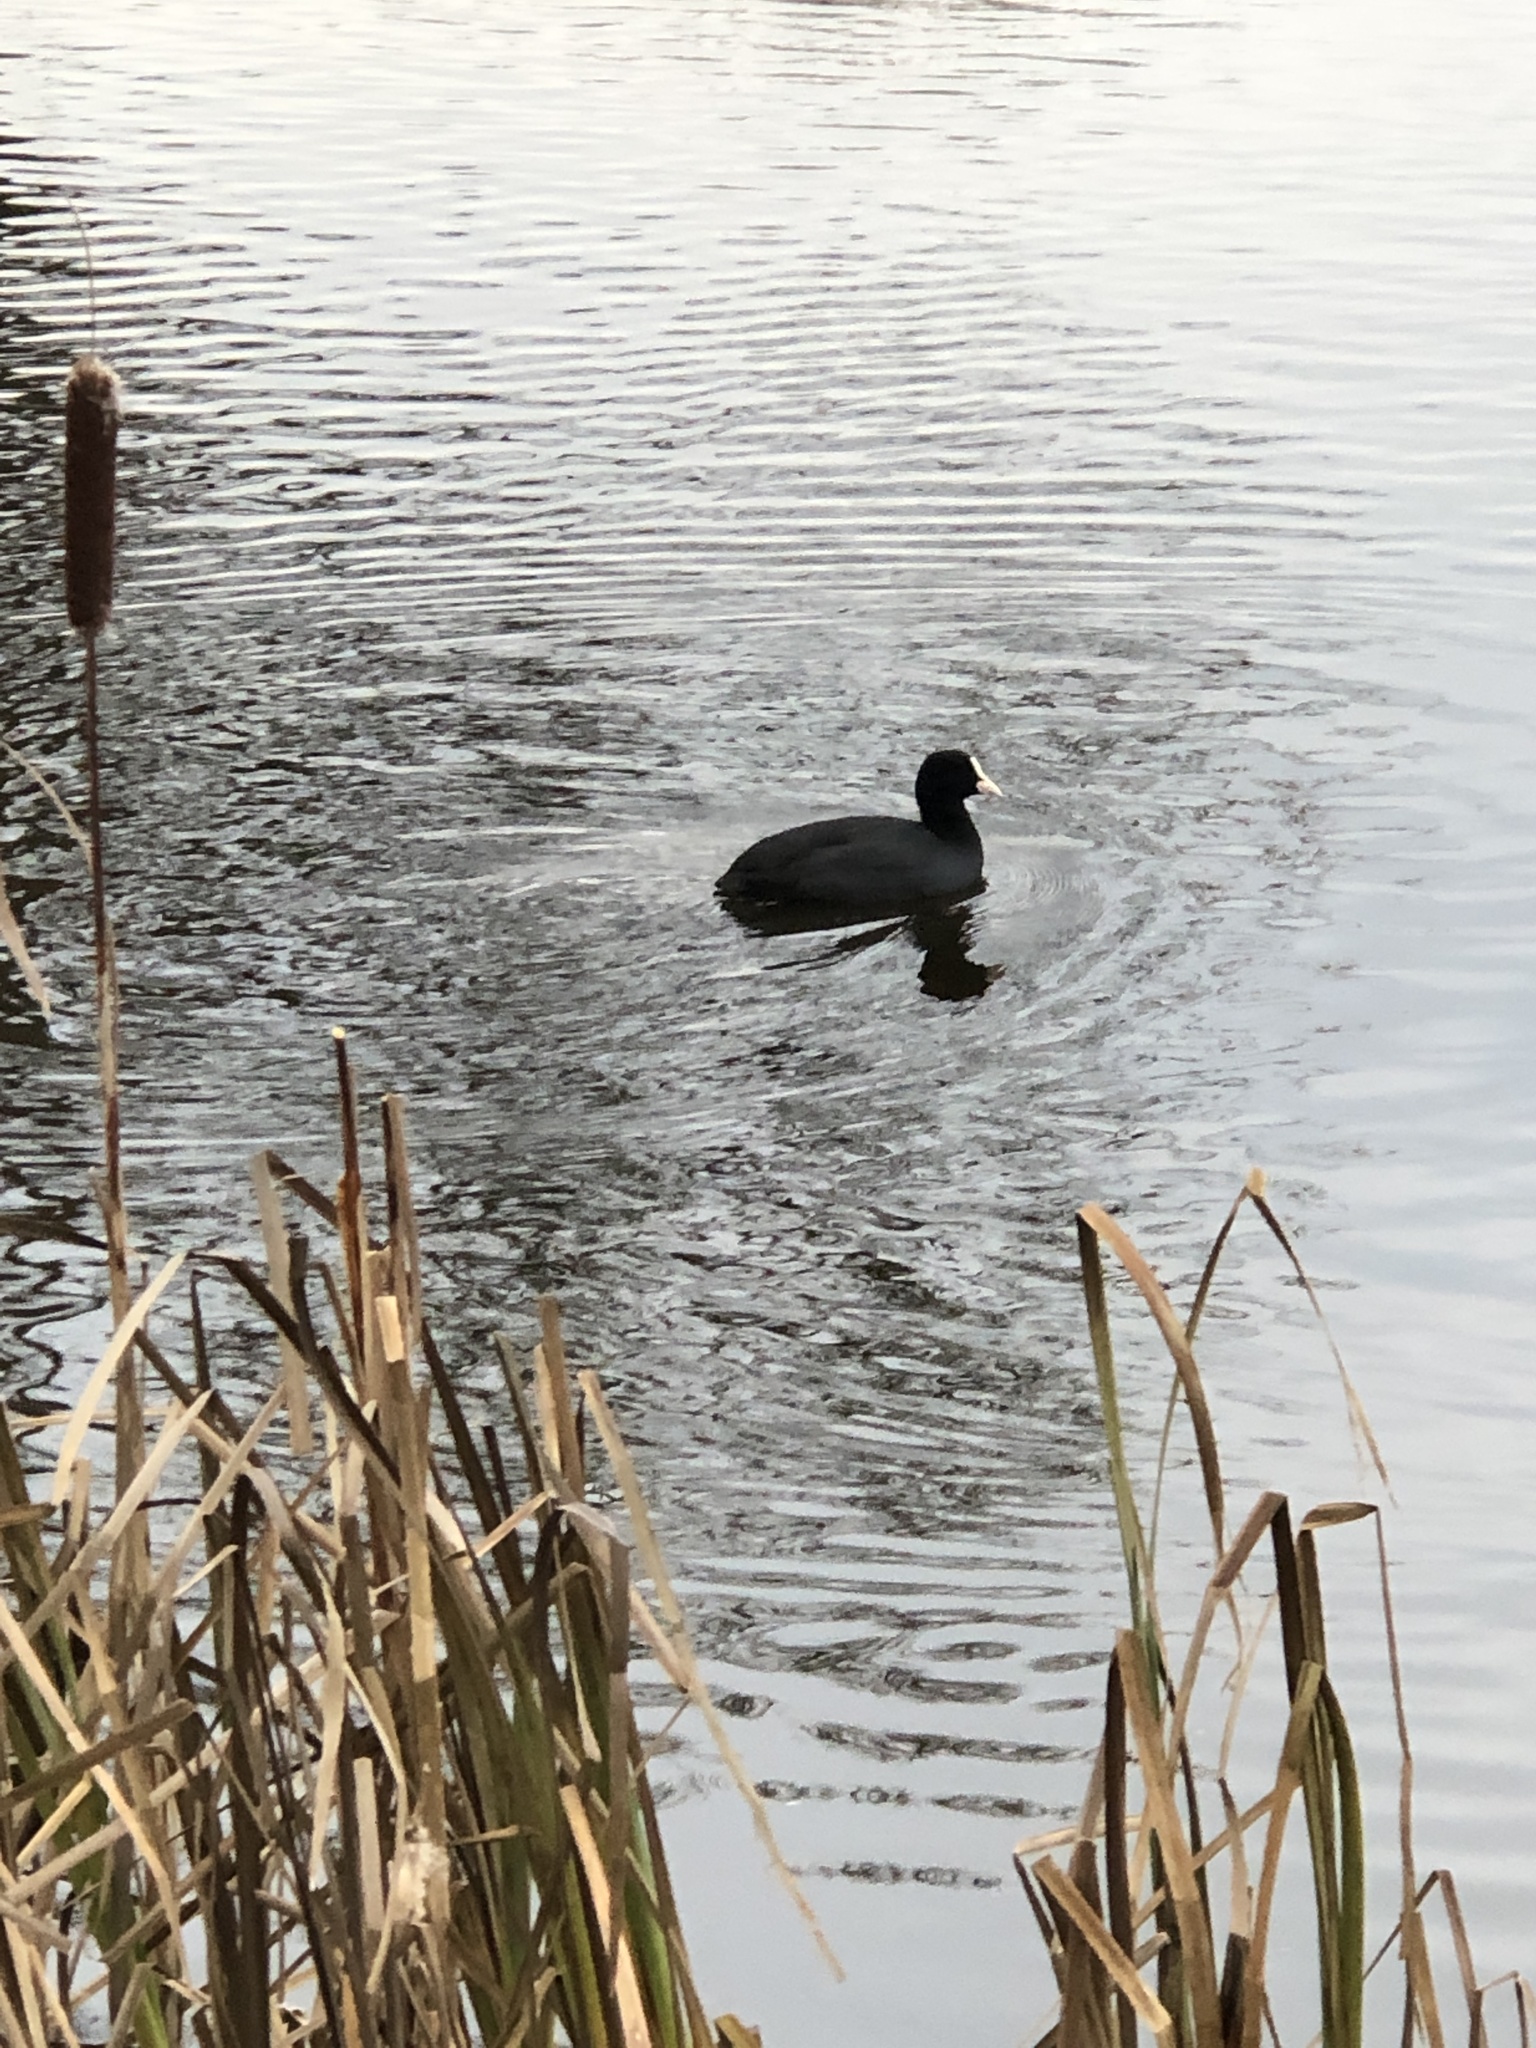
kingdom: Animalia
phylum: Chordata
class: Aves
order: Gruiformes
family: Rallidae
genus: Fulica
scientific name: Fulica atra
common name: Eurasian coot
